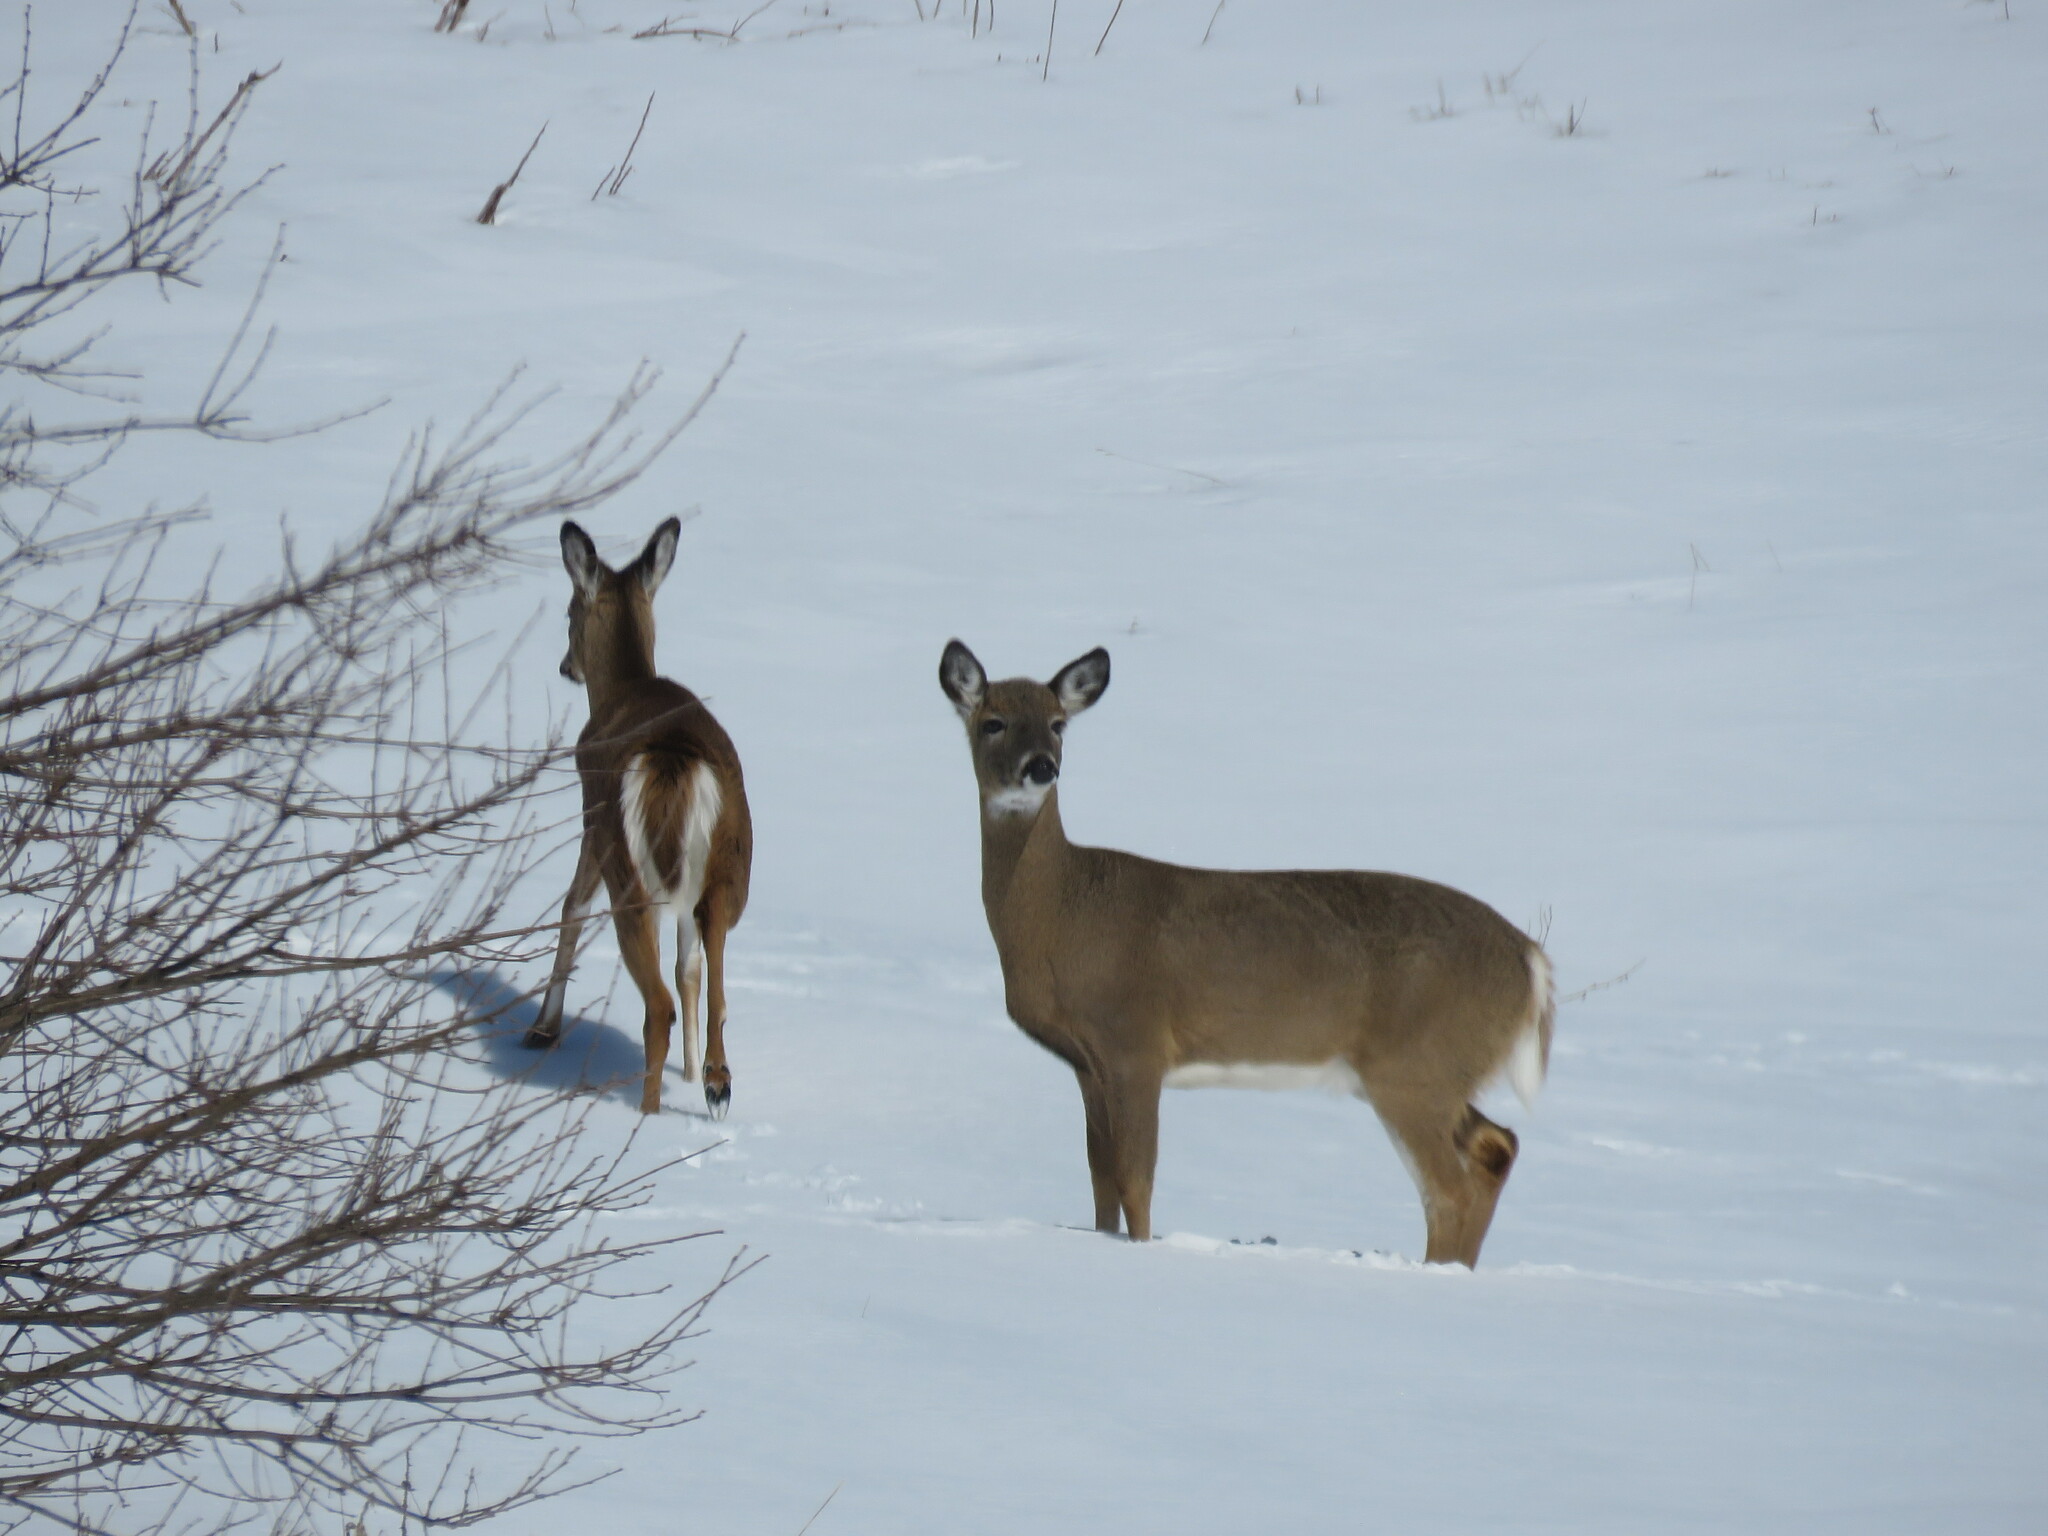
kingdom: Animalia
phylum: Chordata
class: Mammalia
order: Artiodactyla
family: Cervidae
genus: Odocoileus
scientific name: Odocoileus virginianus
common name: White-tailed deer
